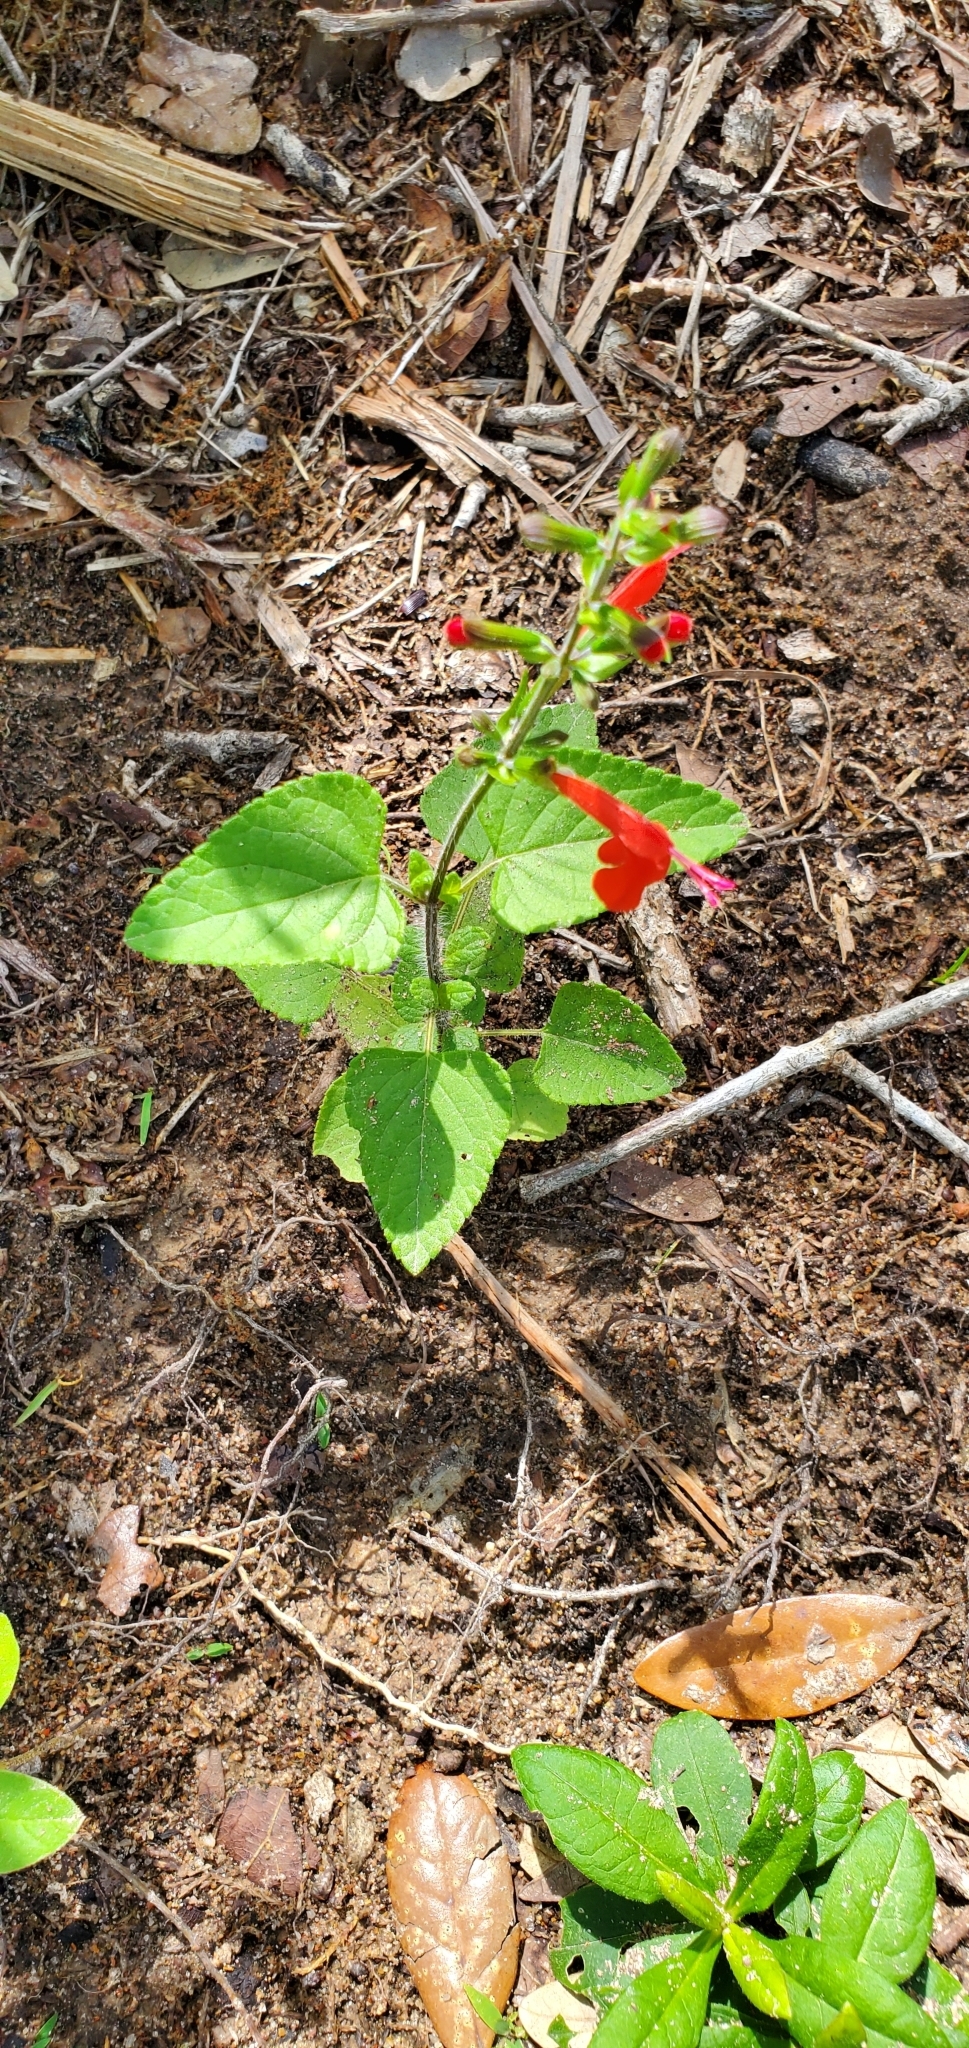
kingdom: Plantae
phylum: Tracheophyta
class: Magnoliopsida
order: Lamiales
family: Lamiaceae
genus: Salvia
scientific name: Salvia coccinea
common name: Blood sage
